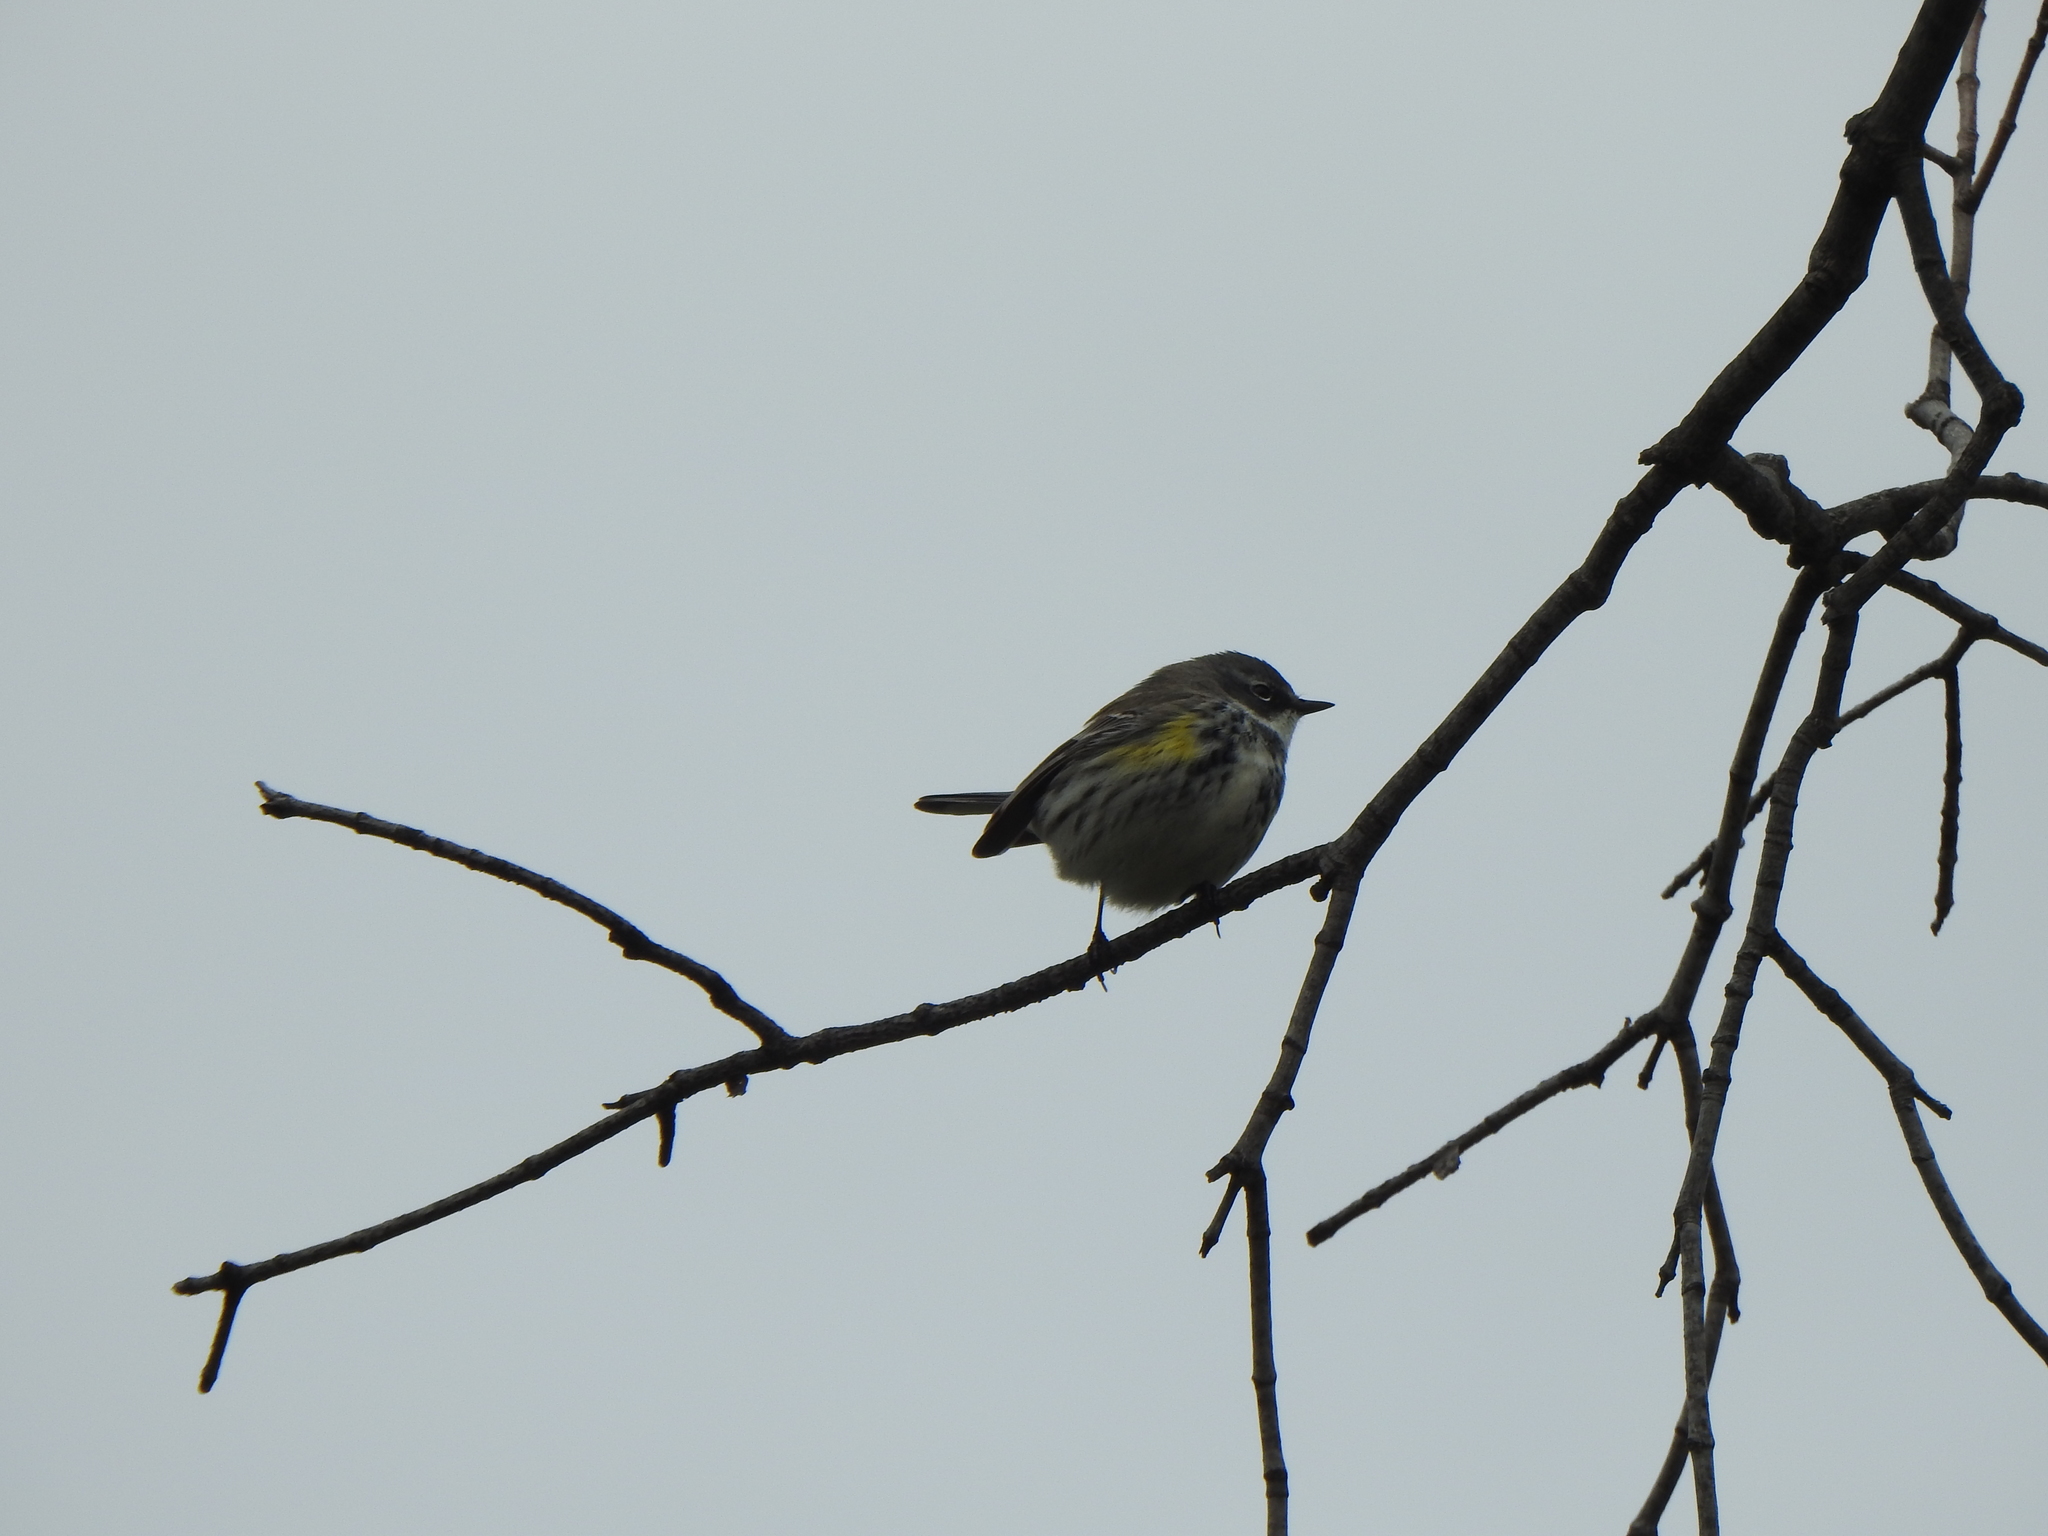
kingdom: Animalia
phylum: Chordata
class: Aves
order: Passeriformes
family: Parulidae
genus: Setophaga
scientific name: Setophaga coronata
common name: Myrtle warbler
